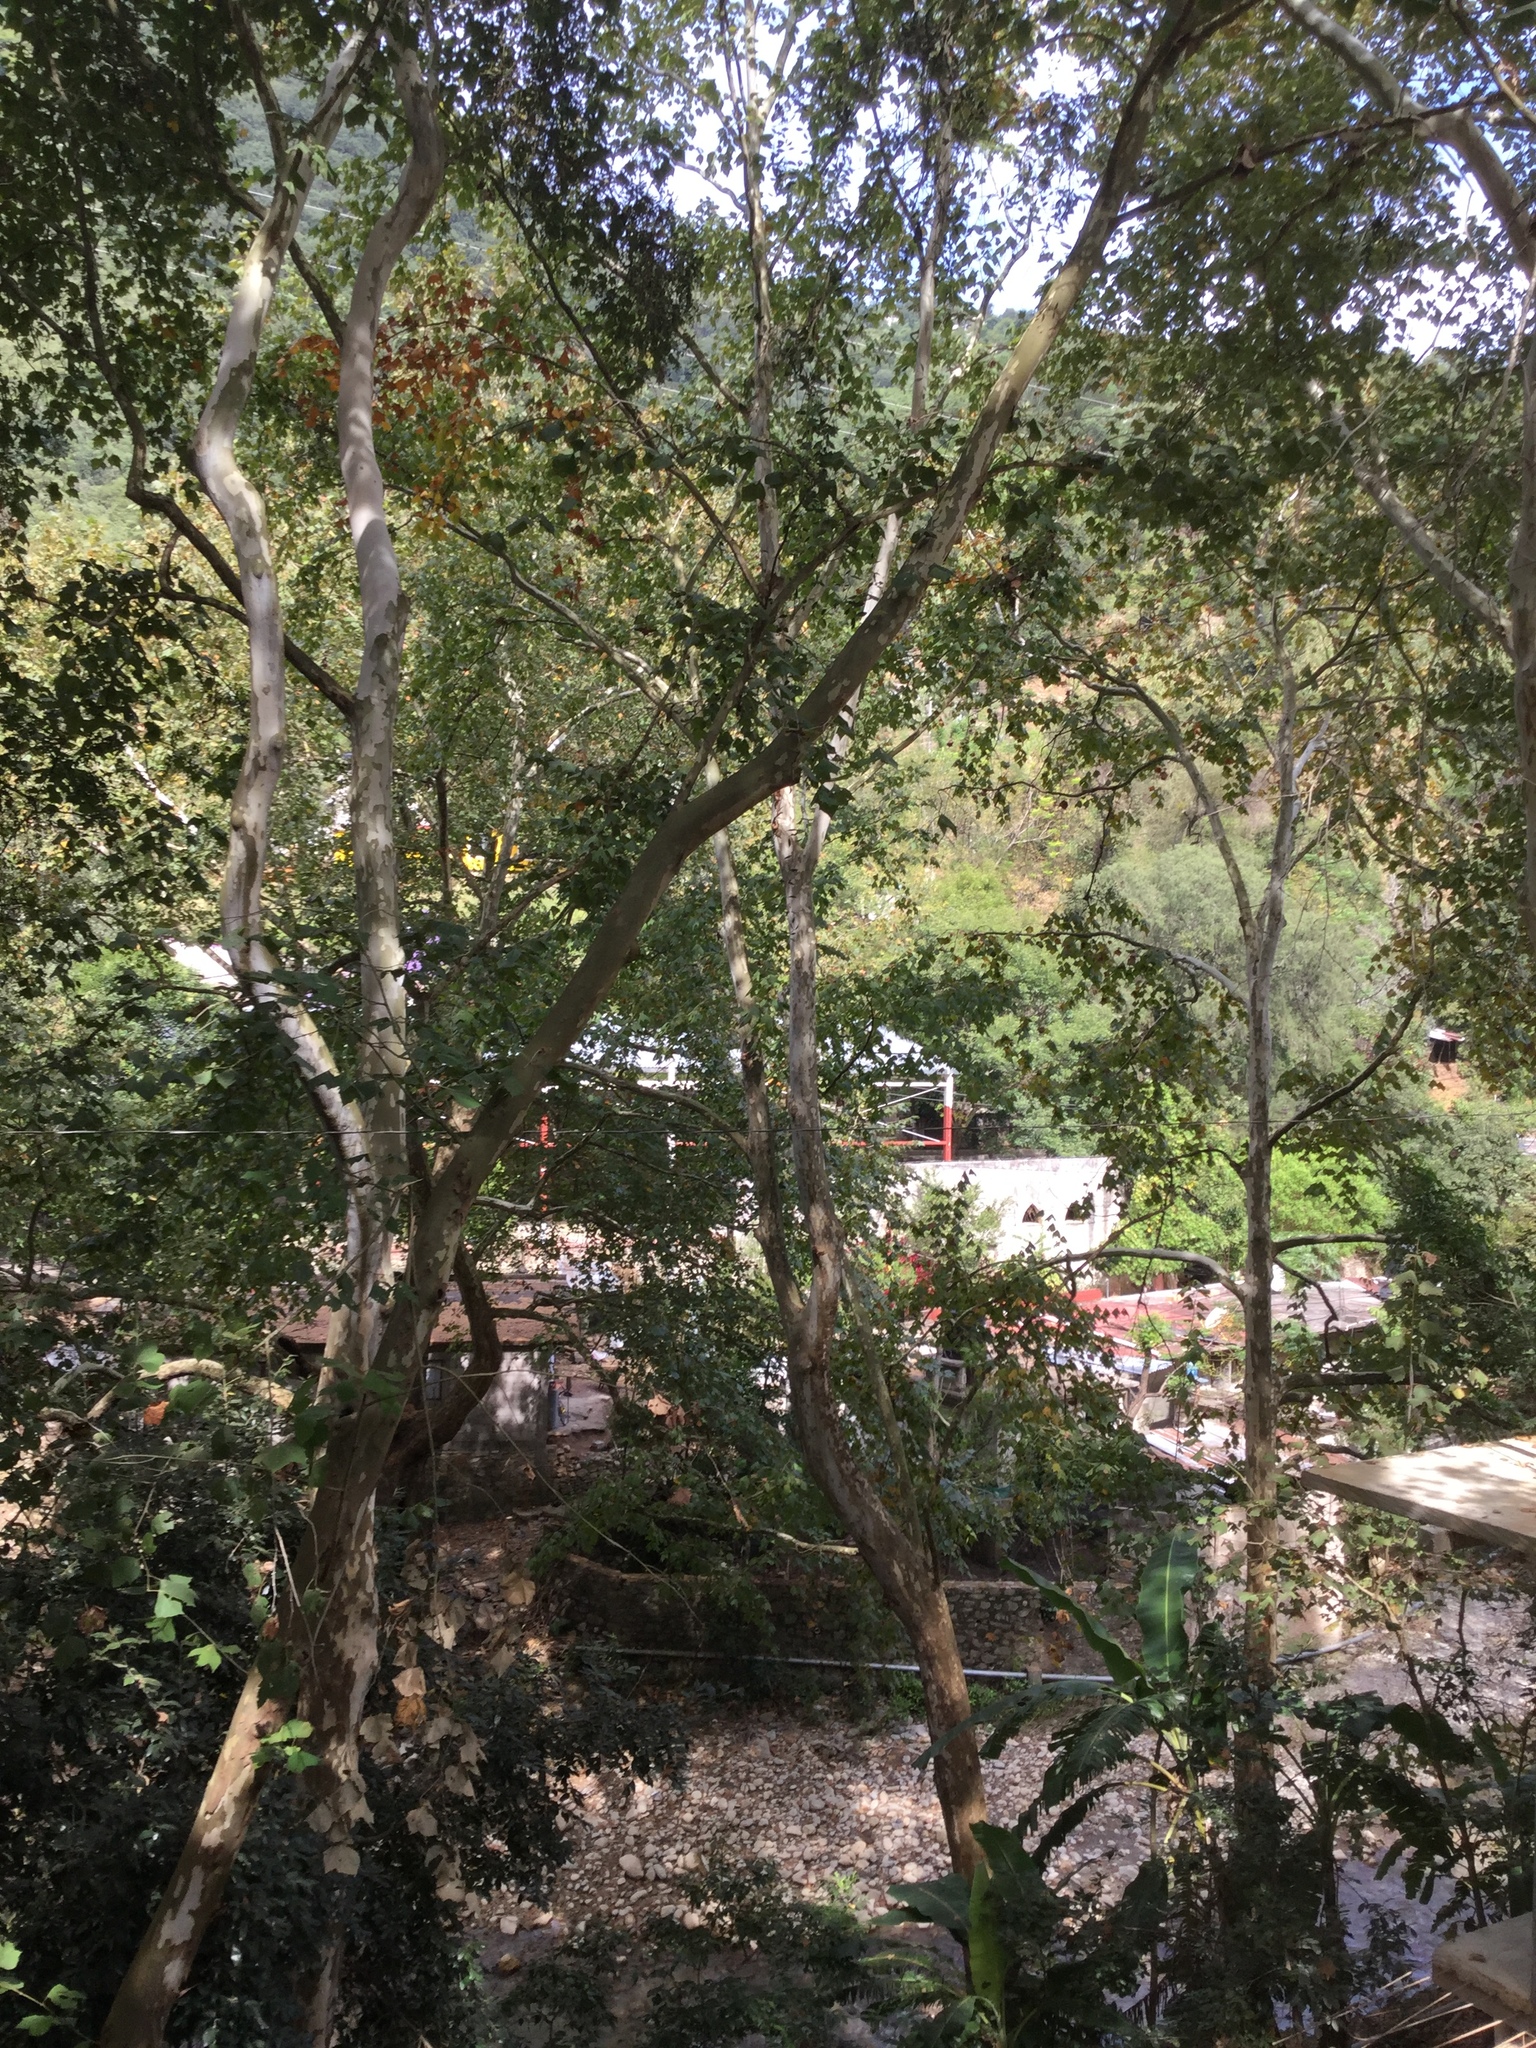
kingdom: Plantae
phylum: Tracheophyta
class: Magnoliopsida
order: Proteales
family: Platanaceae
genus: Platanus
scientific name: Platanus mexicana
